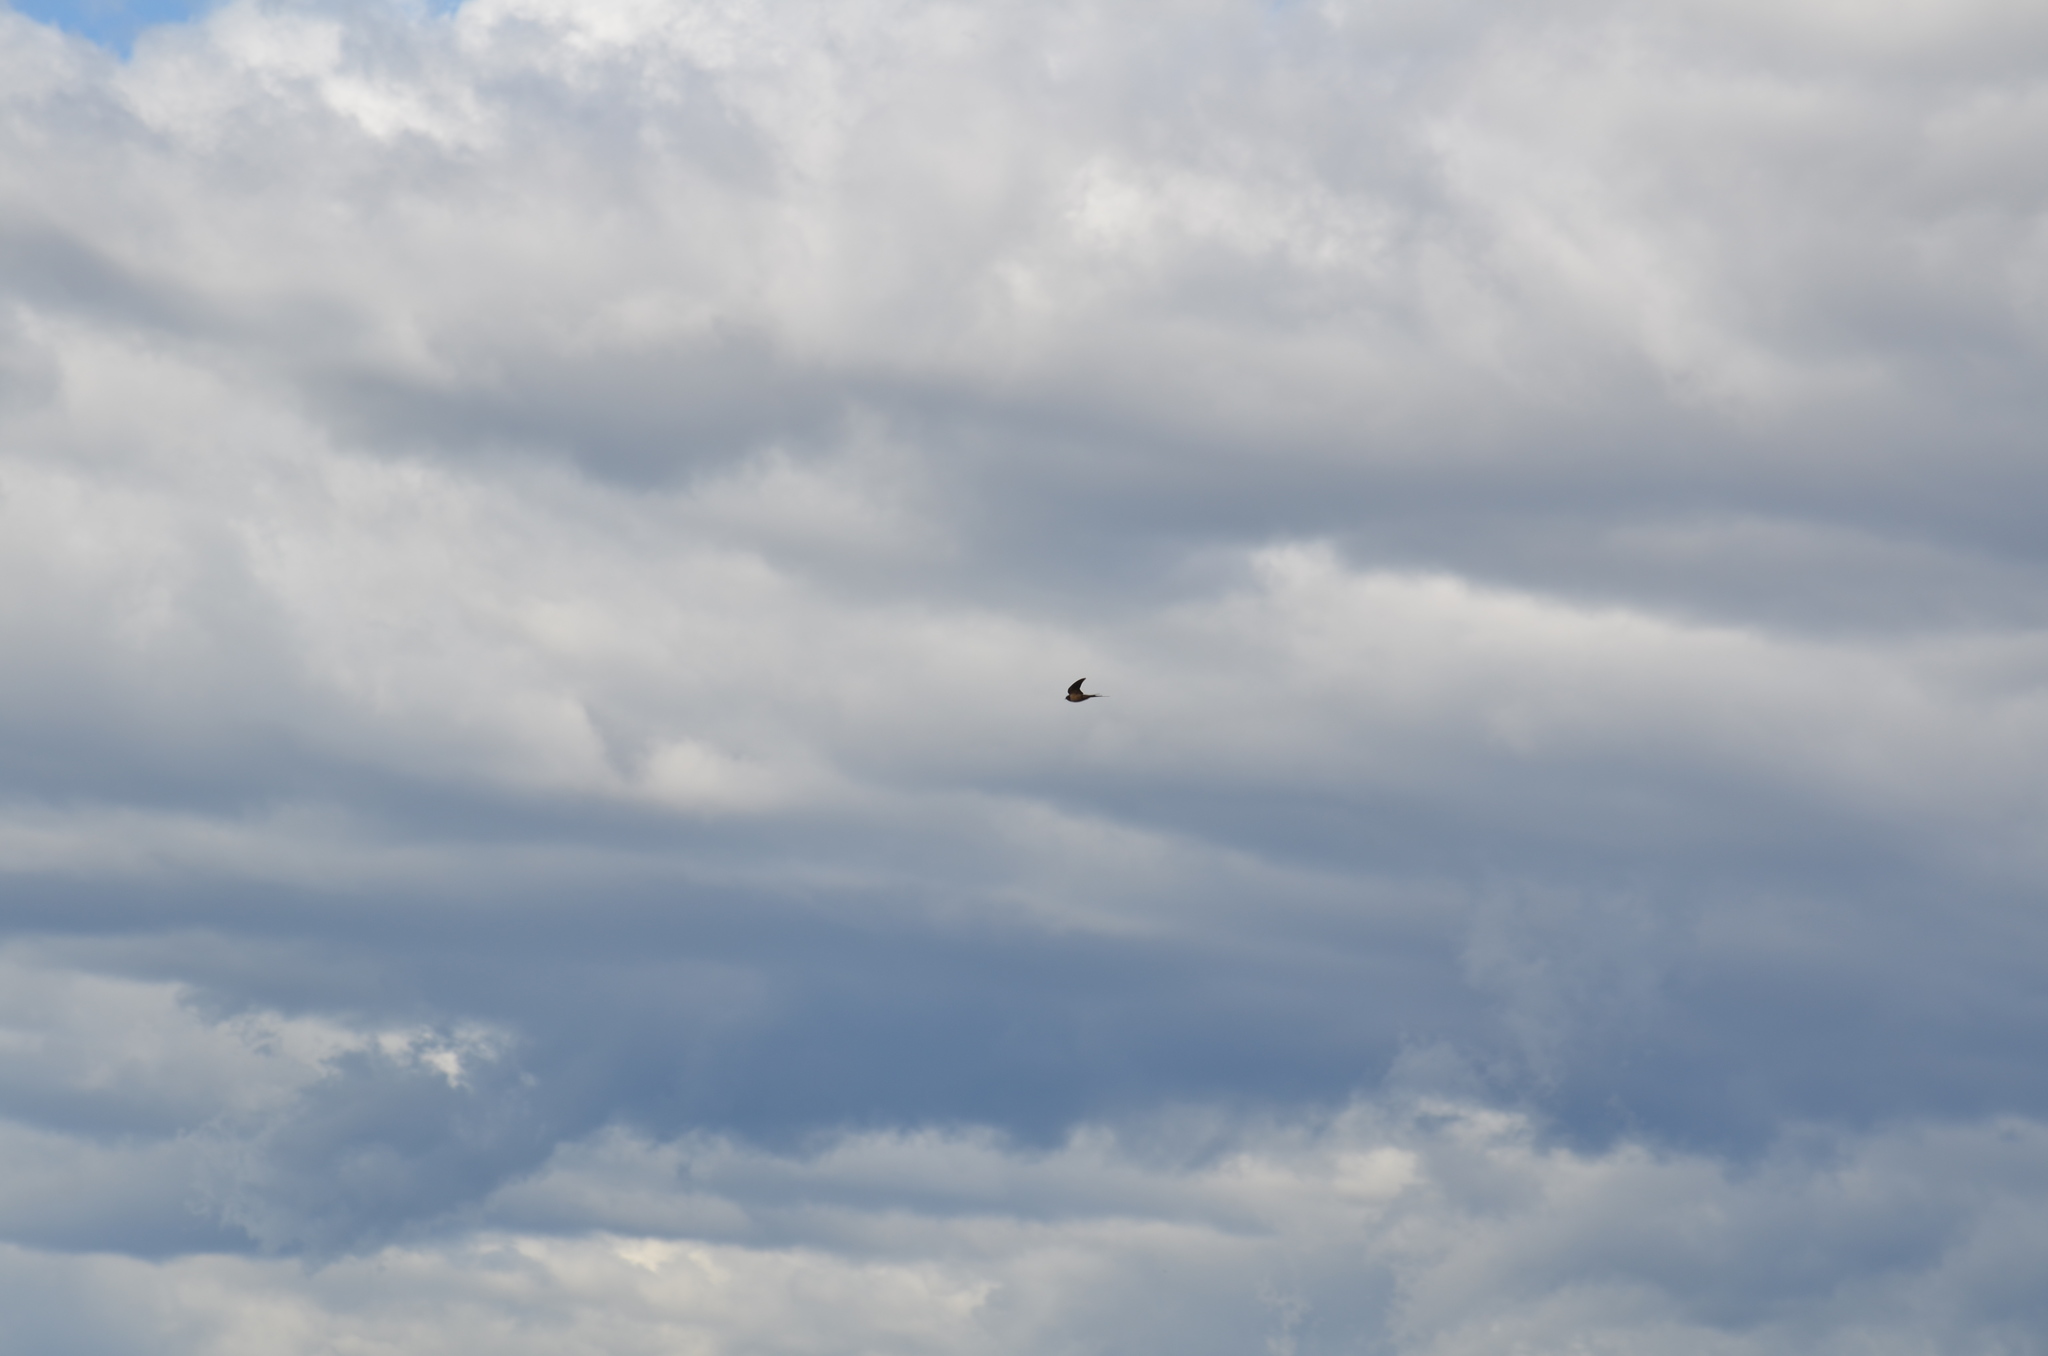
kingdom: Animalia
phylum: Chordata
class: Aves
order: Passeriformes
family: Hirundinidae
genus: Hirundo
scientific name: Hirundo rustica
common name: Barn swallow
